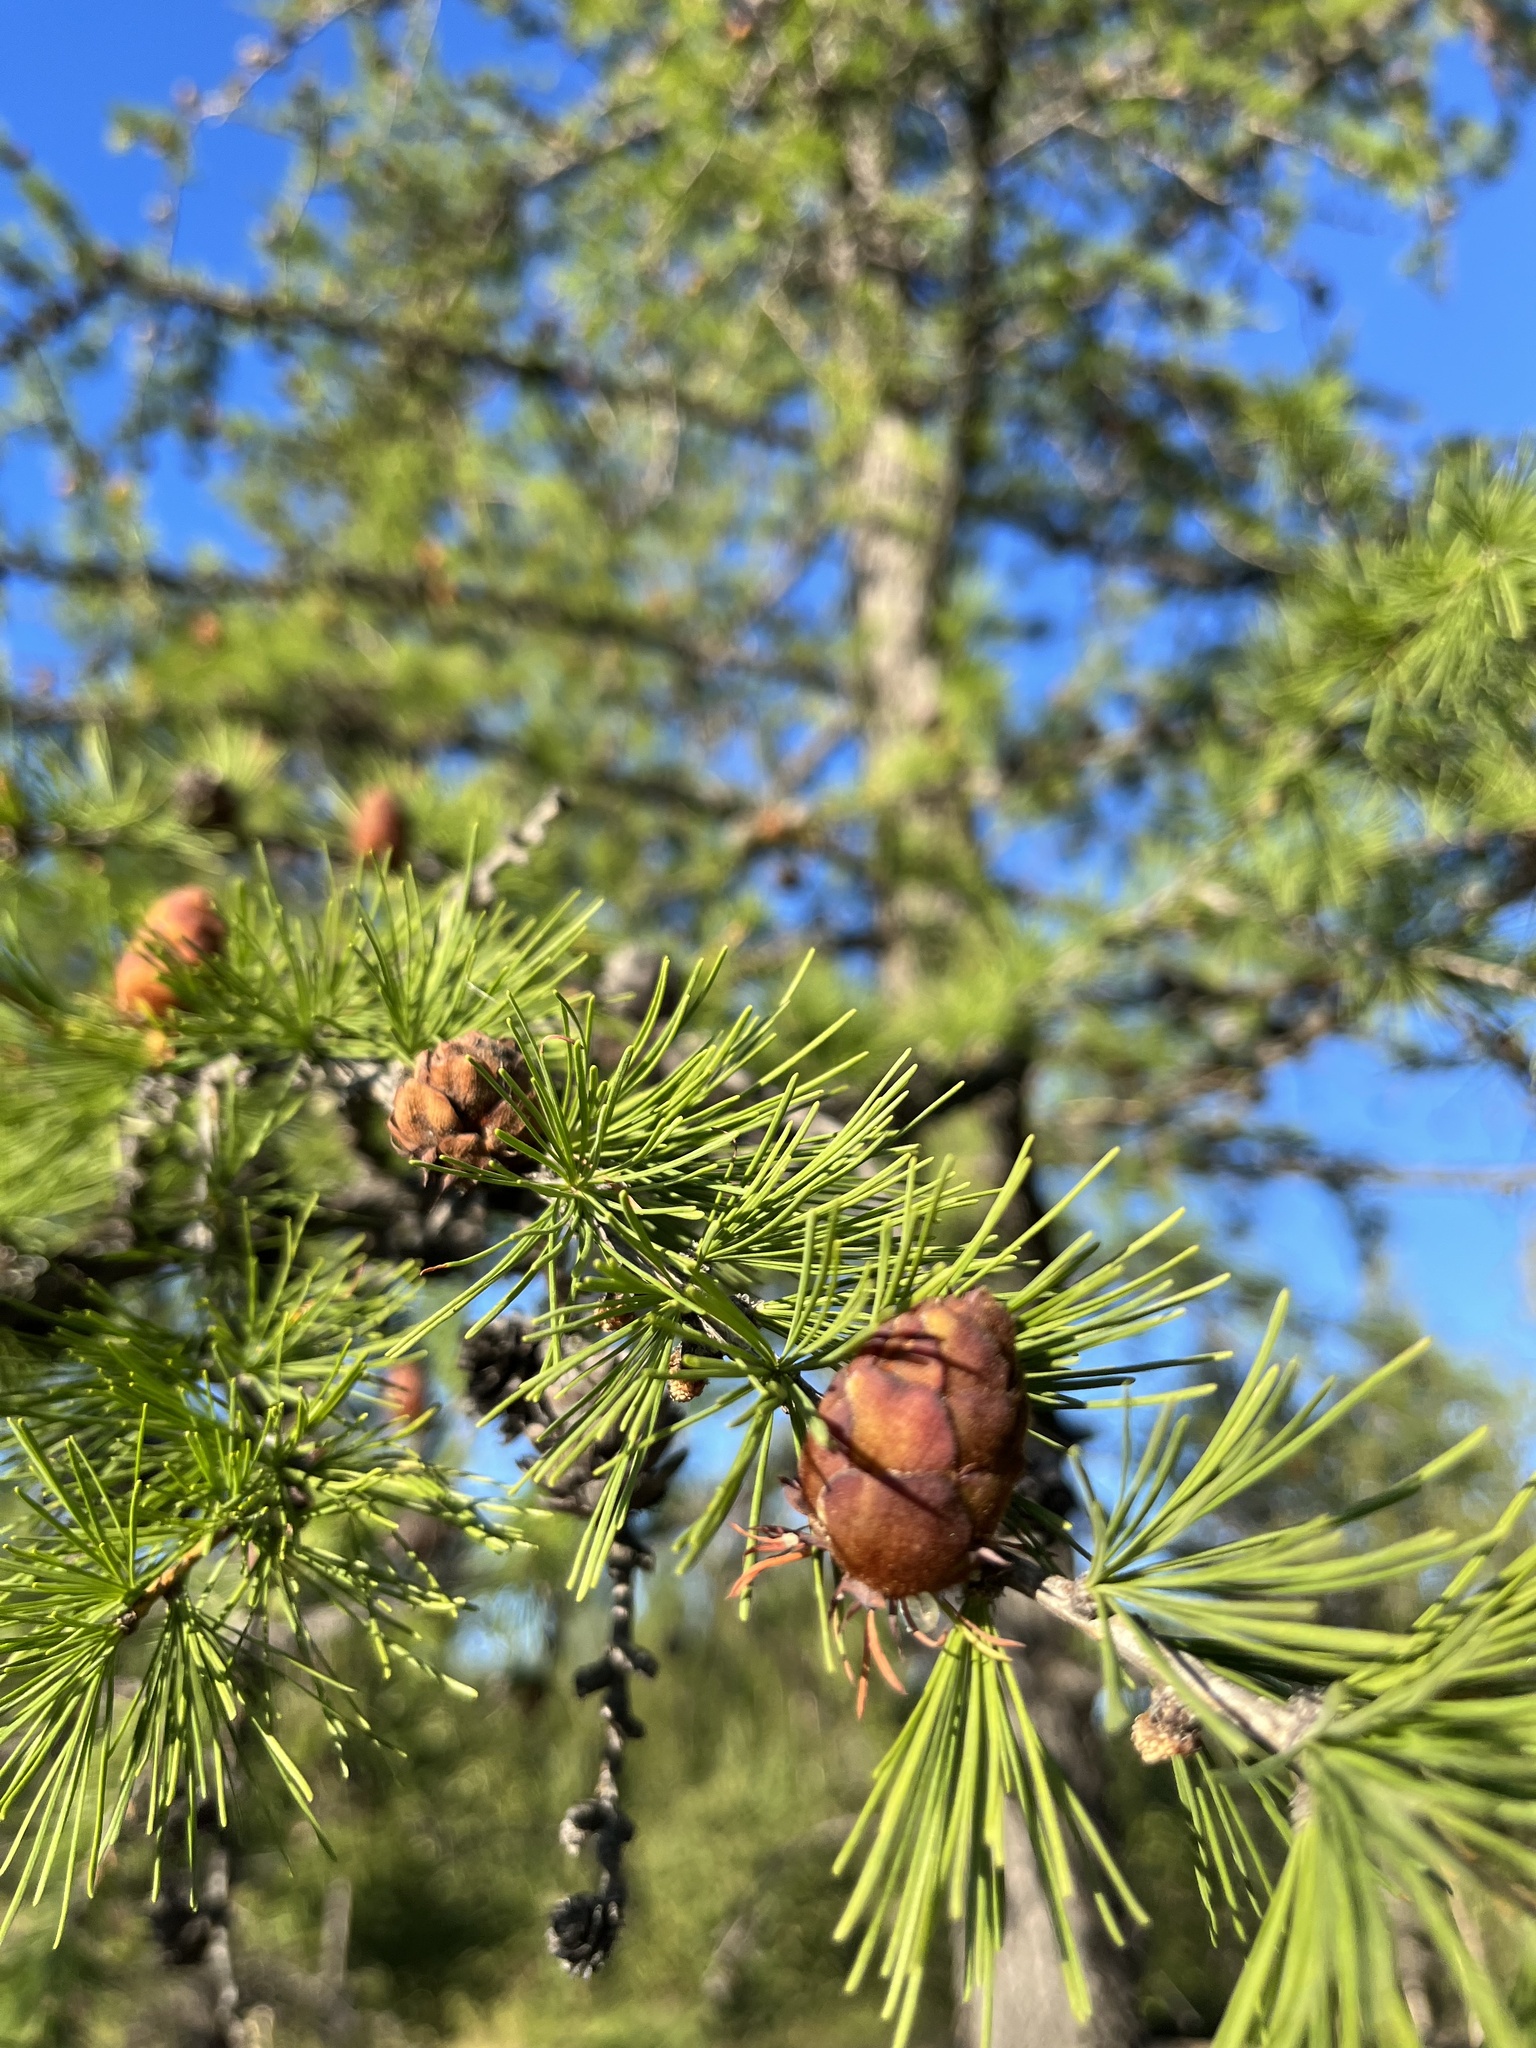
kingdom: Plantae
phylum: Tracheophyta
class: Pinopsida
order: Pinales
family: Pinaceae
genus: Larix
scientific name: Larix sibirica
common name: Siberian larch
